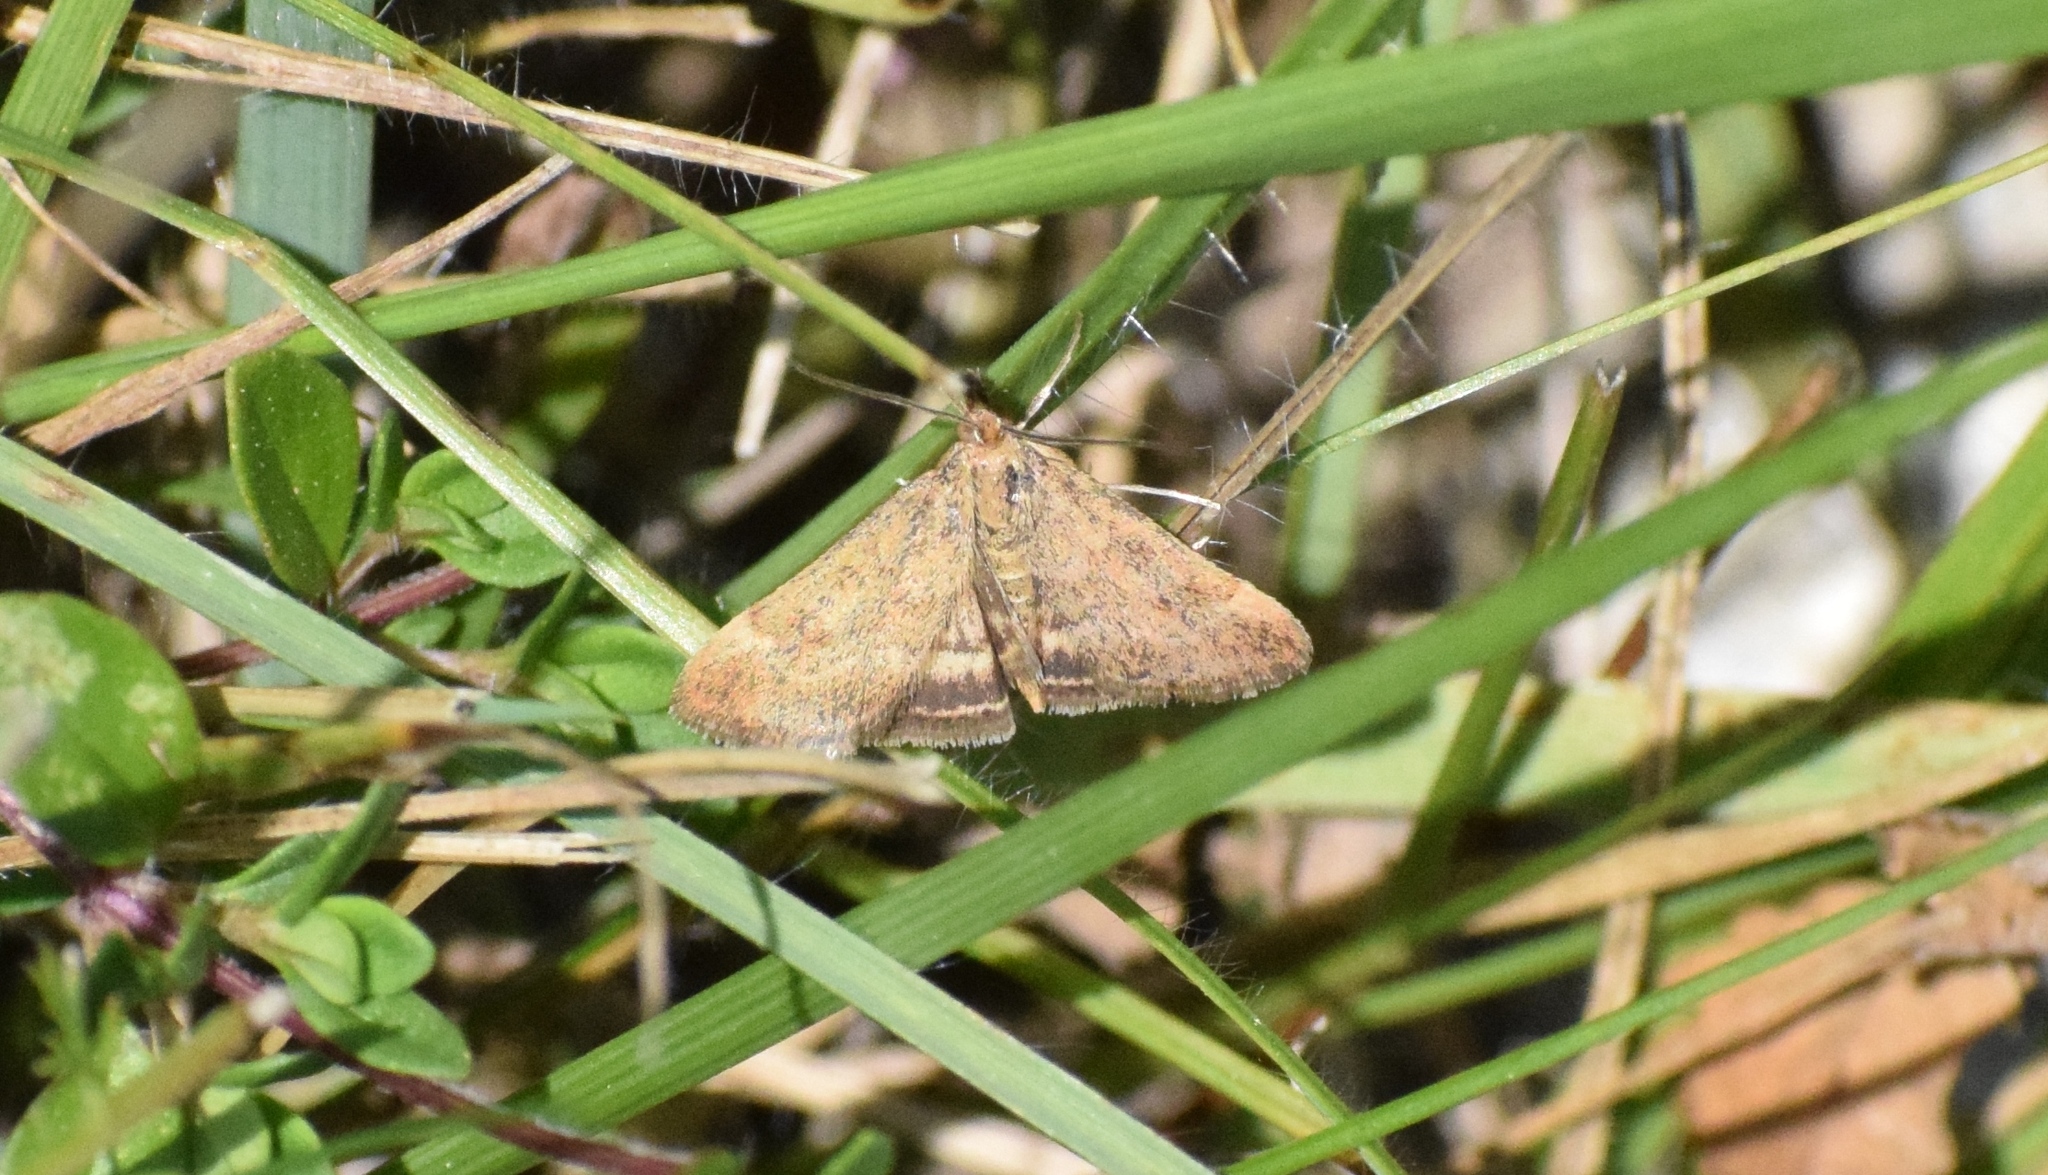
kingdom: Animalia
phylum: Arthropoda
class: Insecta
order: Lepidoptera
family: Crambidae
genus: Pyrausta
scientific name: Pyrausta despicata
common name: Straw-barred pearl
